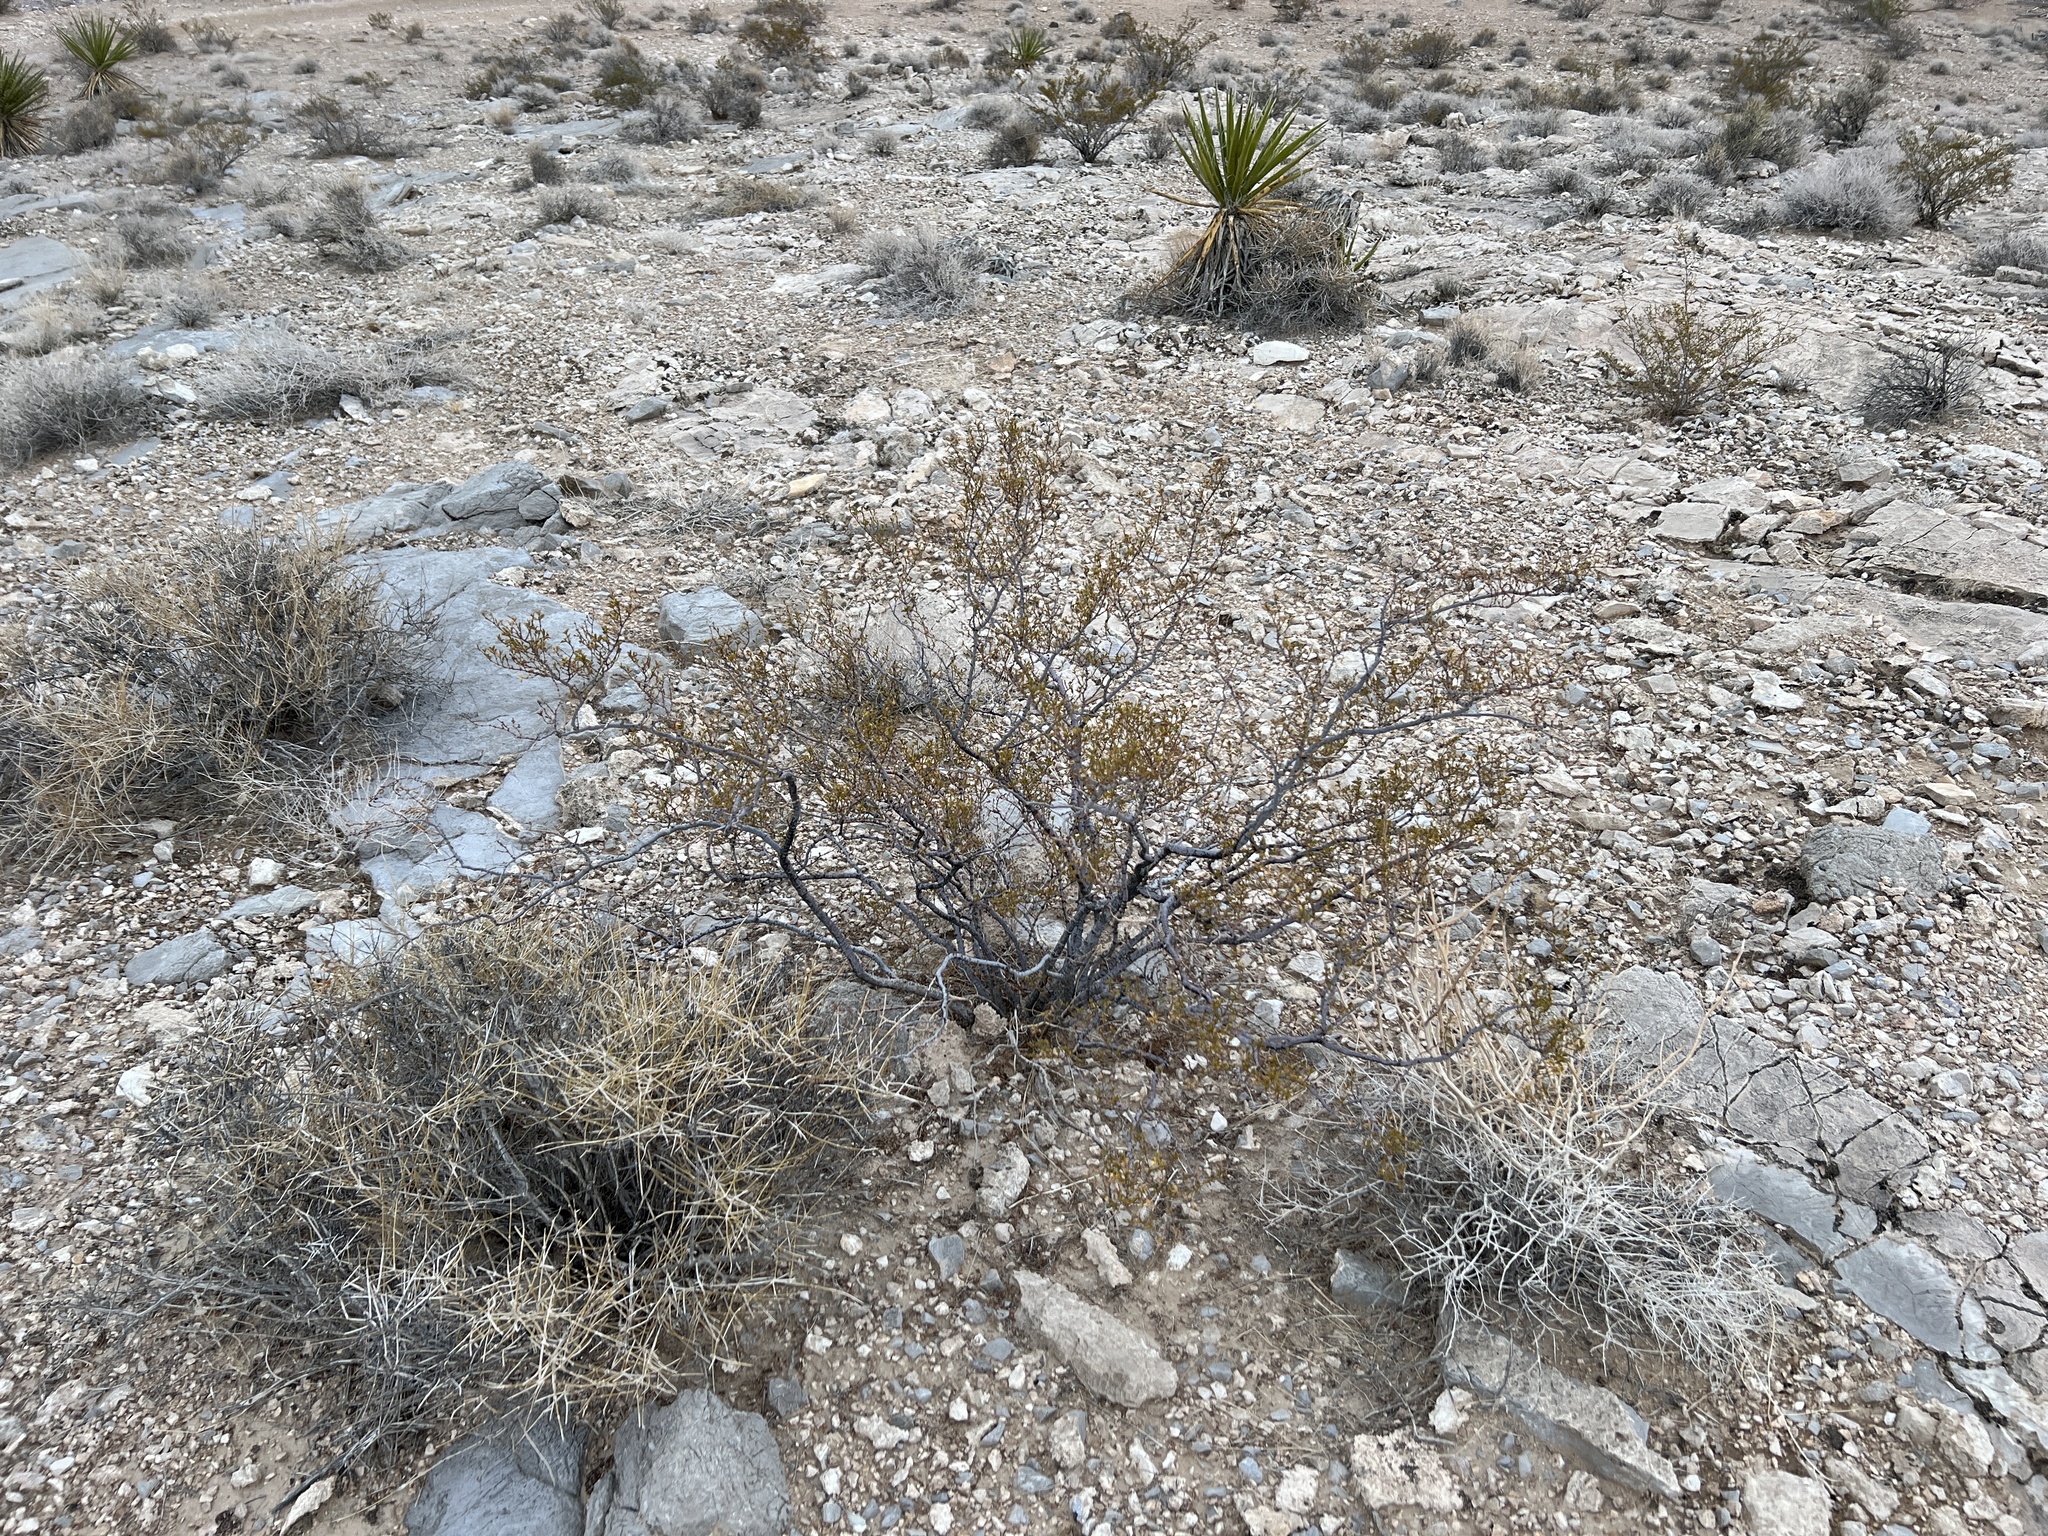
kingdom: Plantae
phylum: Tracheophyta
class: Magnoliopsida
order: Zygophyllales
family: Zygophyllaceae
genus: Larrea
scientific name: Larrea tridentata
